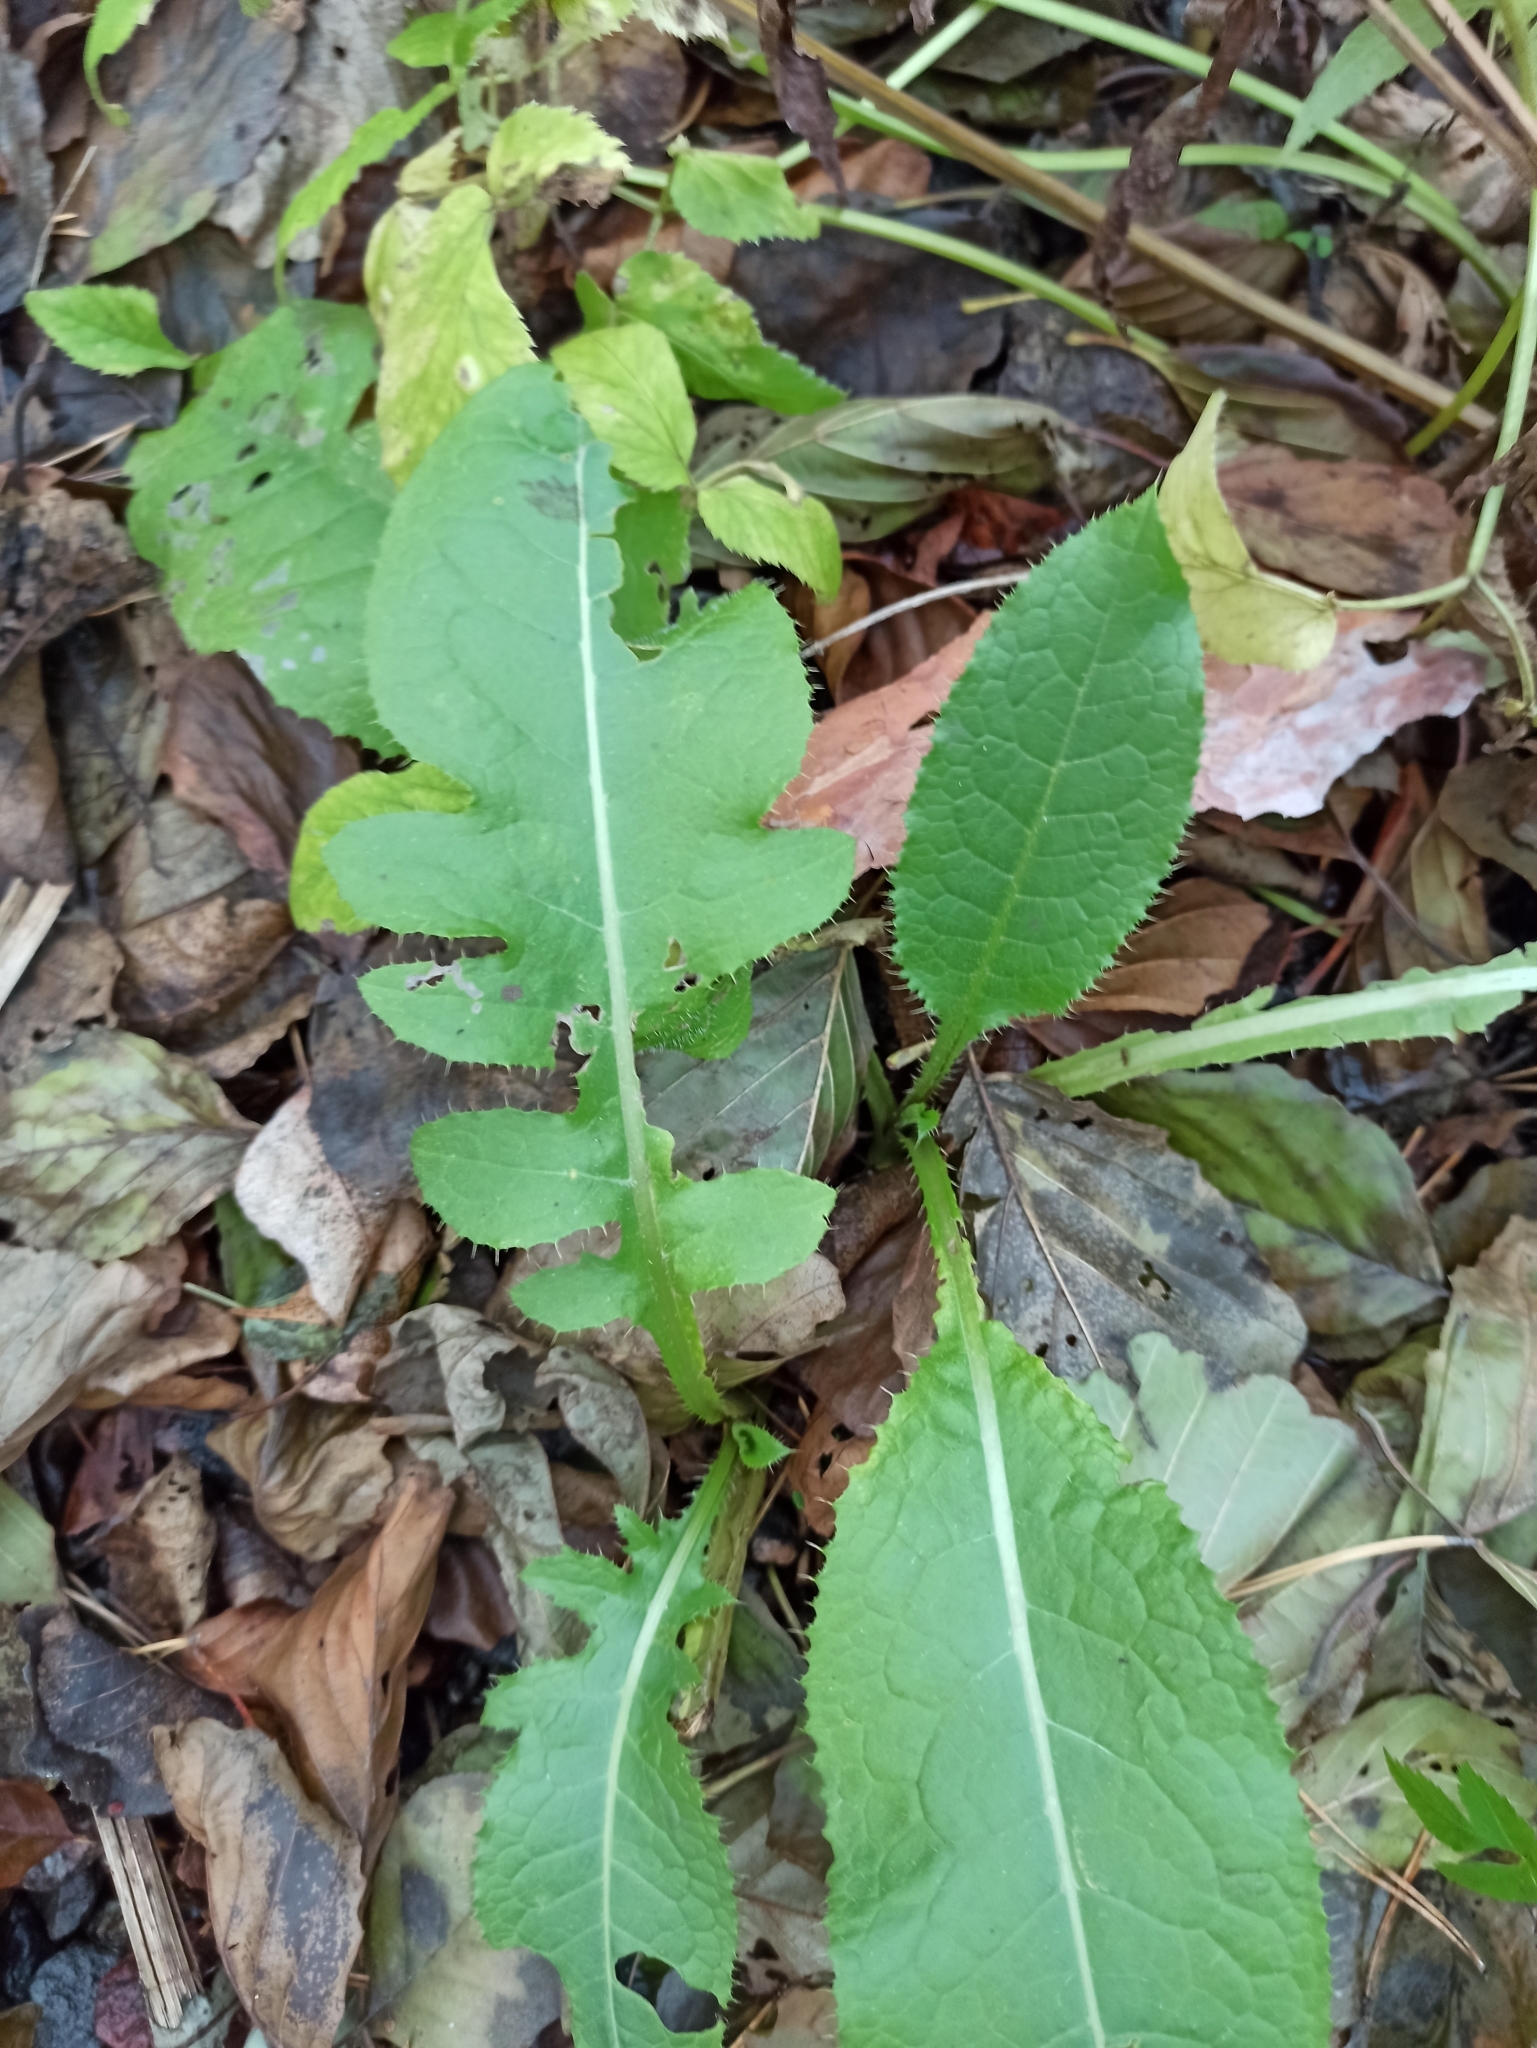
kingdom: Plantae
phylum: Tracheophyta
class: Magnoliopsida
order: Asterales
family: Asteraceae
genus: Cirsium
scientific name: Cirsium oleraceum
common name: Cabbage thistle
